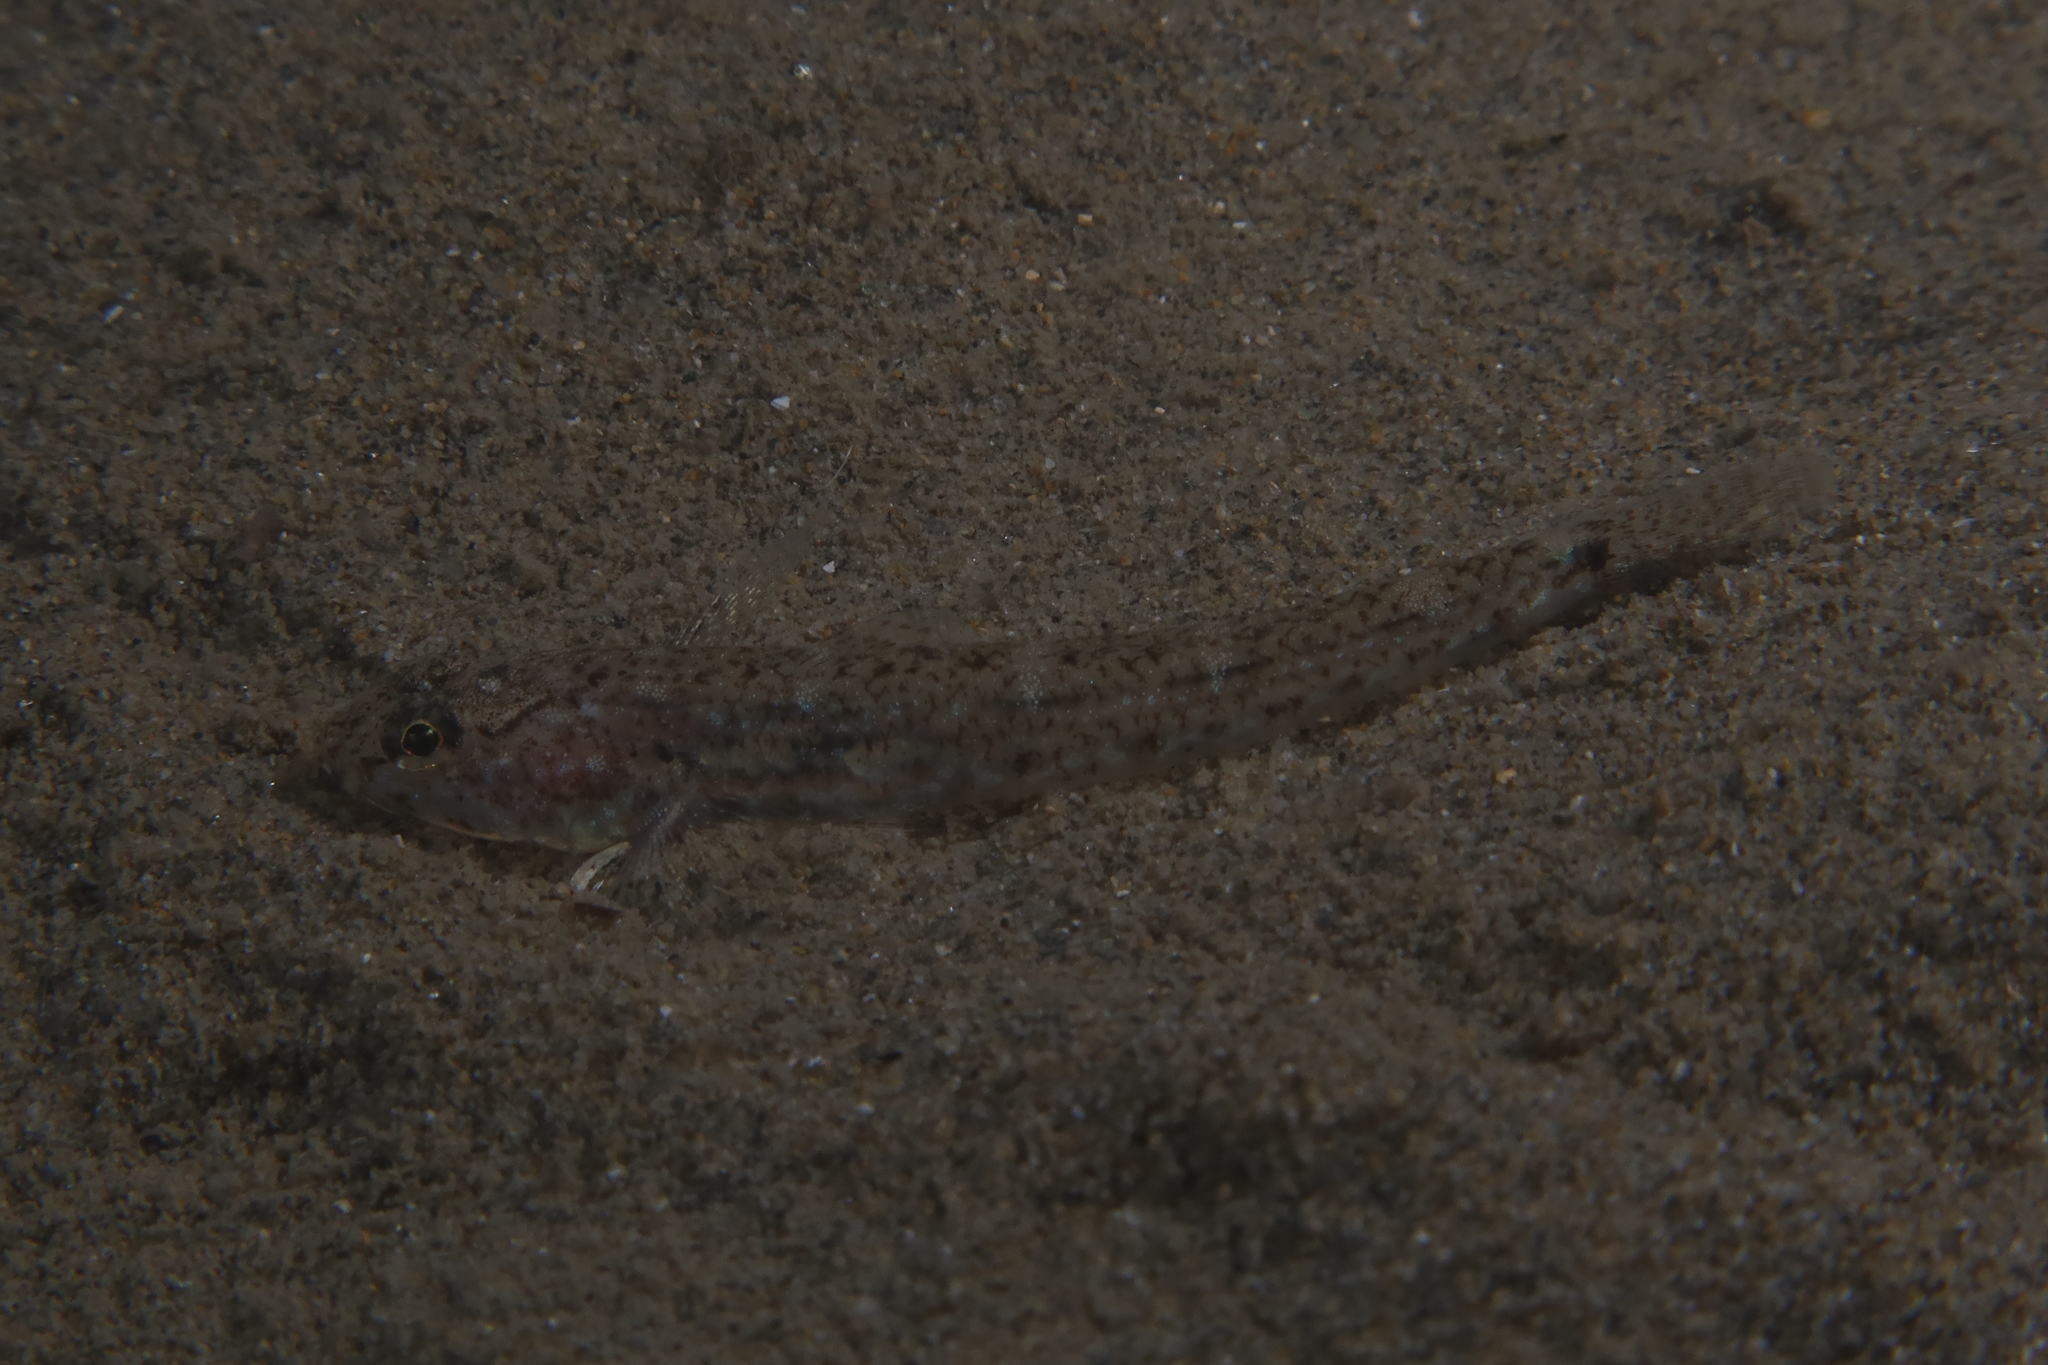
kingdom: Animalia
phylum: Chordata
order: Perciformes
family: Gobiidae
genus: Pomatoschistus
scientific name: Pomatoschistus marmoratus
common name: Marbled goby
